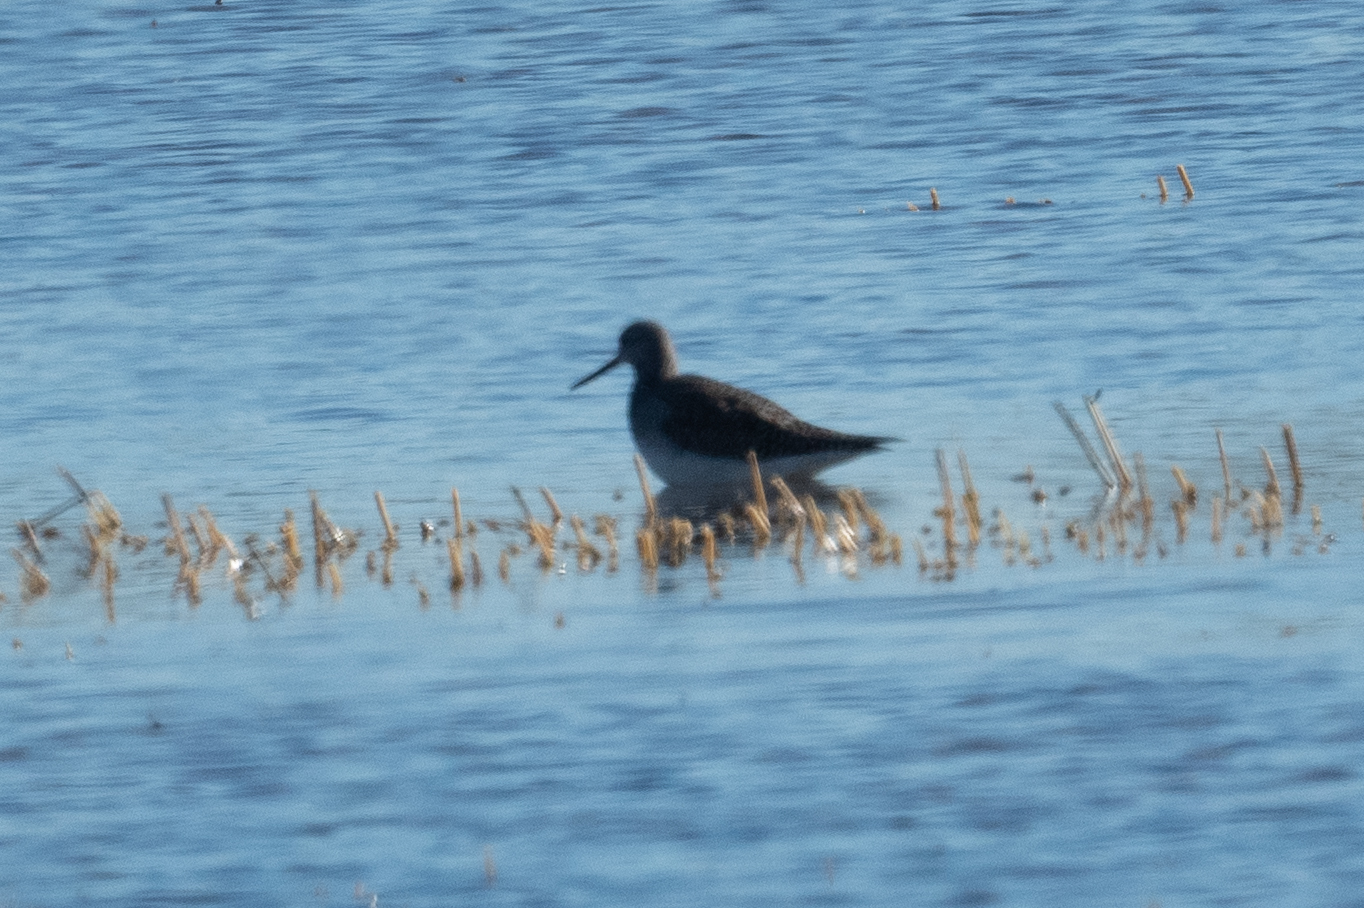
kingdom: Animalia
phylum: Chordata
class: Aves
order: Charadriiformes
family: Scolopacidae
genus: Tringa
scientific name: Tringa melanoleuca
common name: Greater yellowlegs
